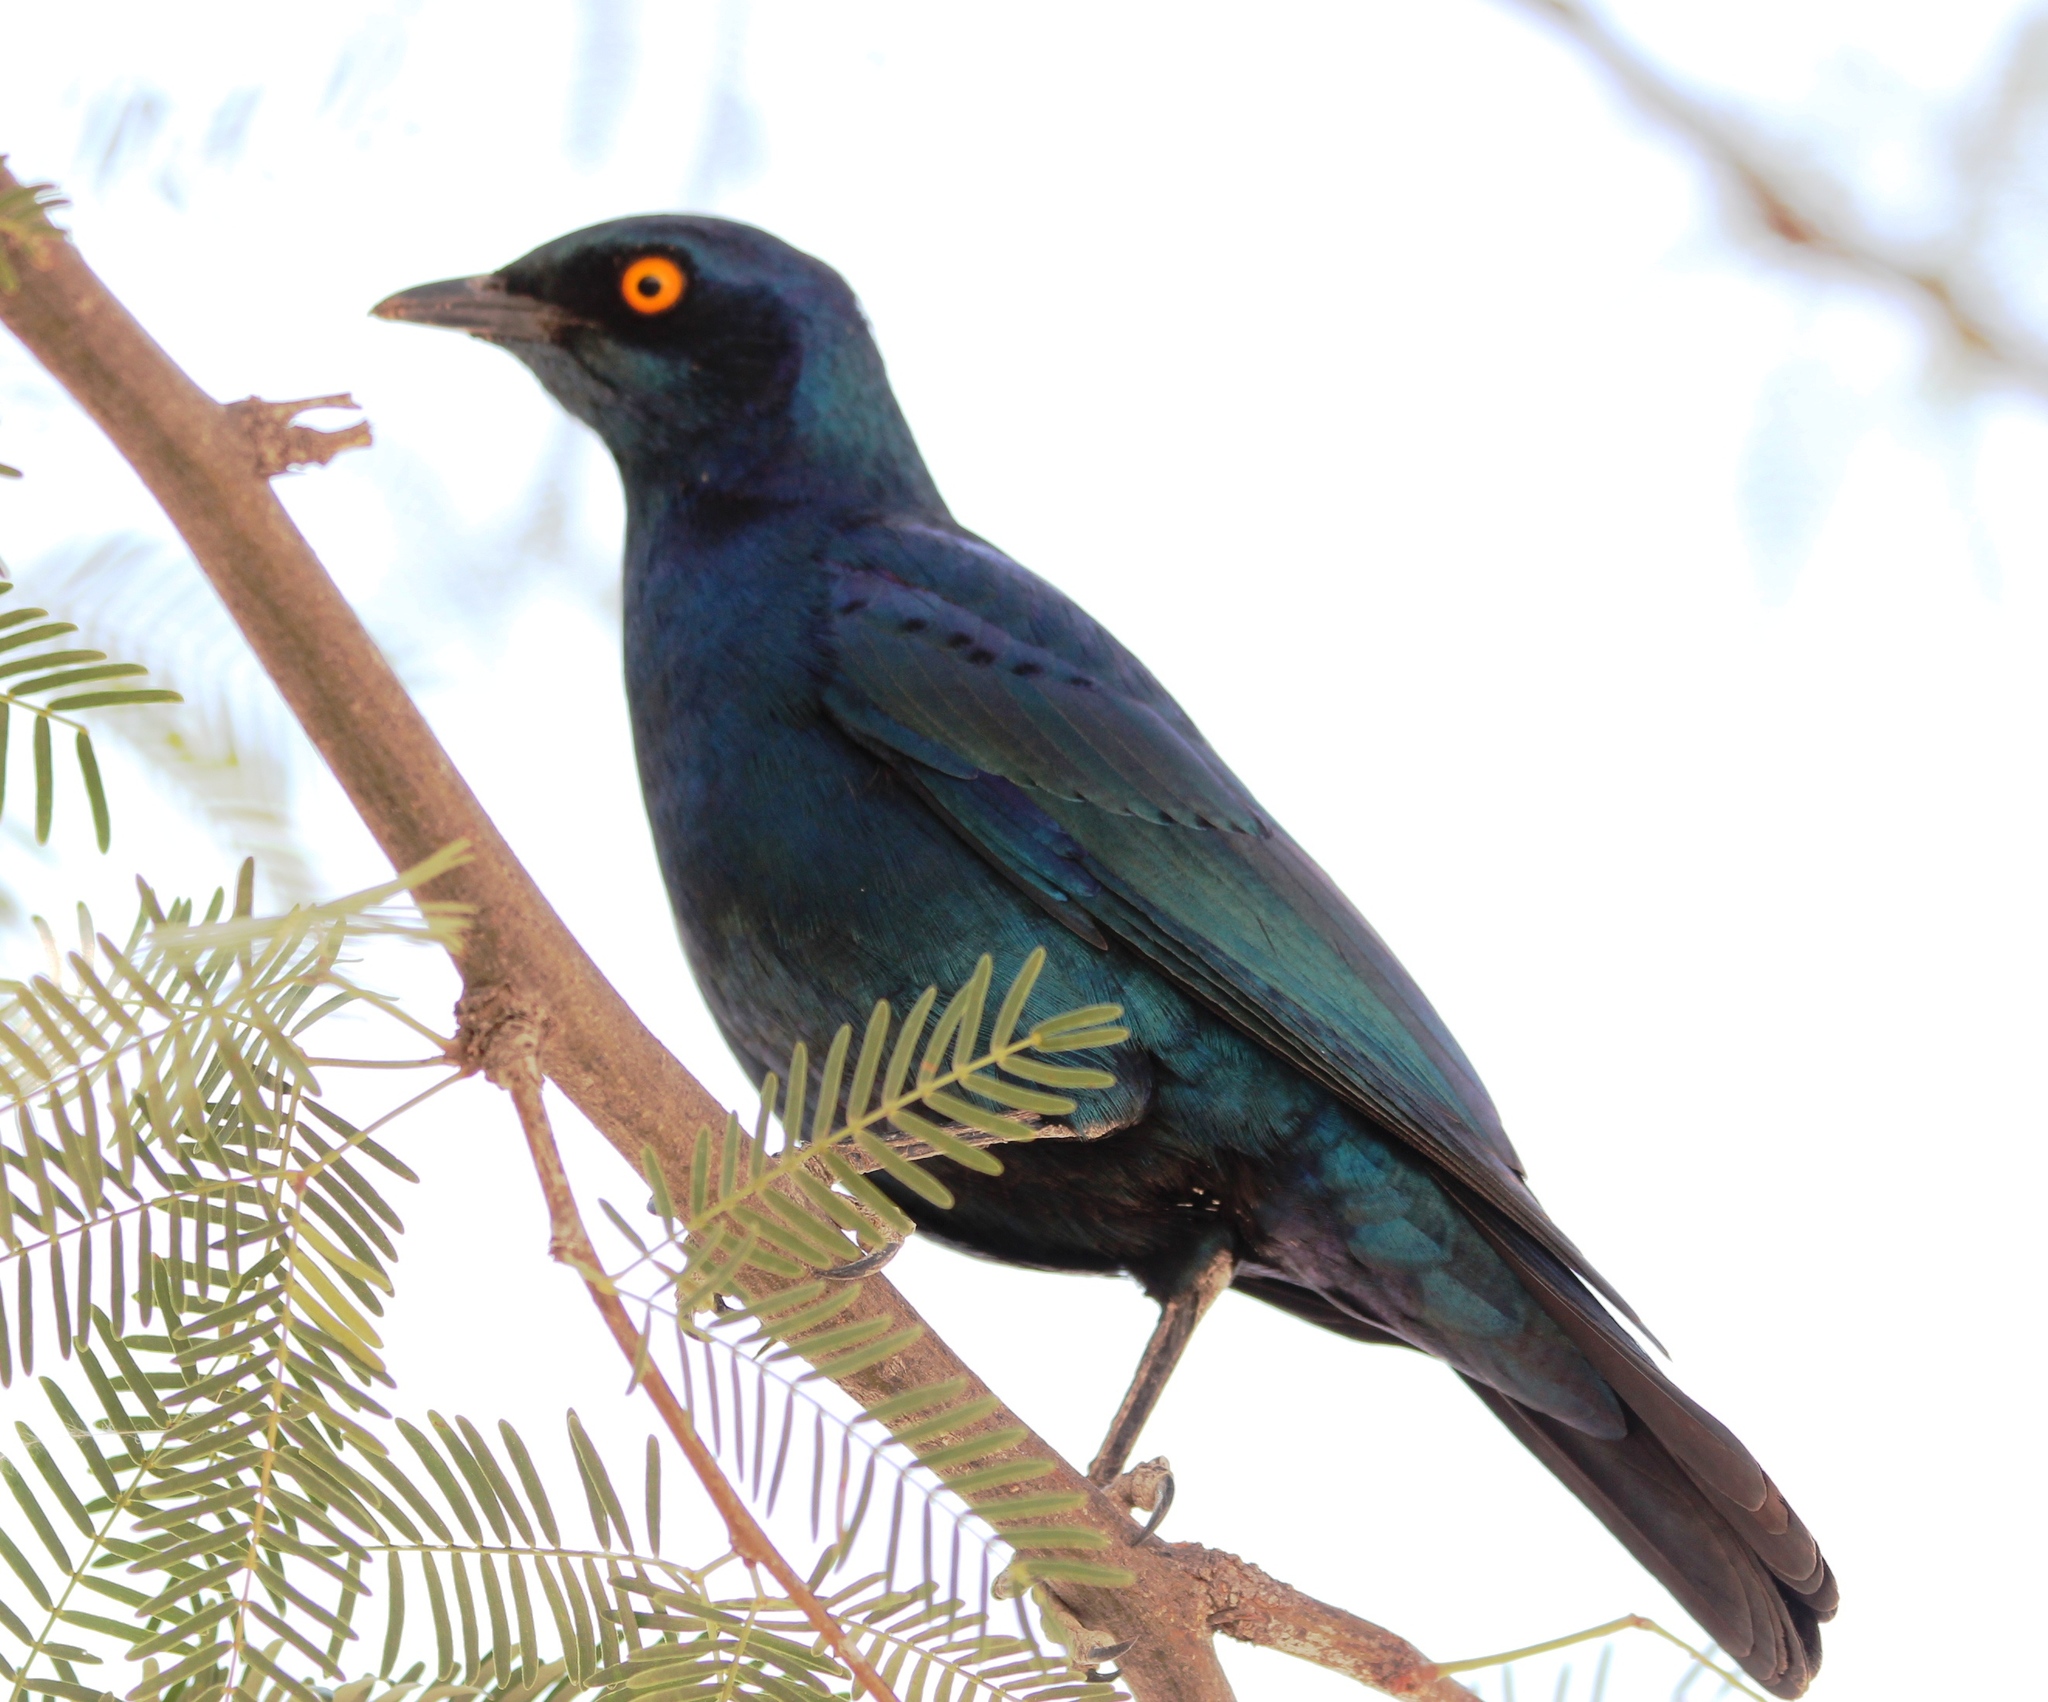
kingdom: Animalia
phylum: Chordata
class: Aves
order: Passeriformes
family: Sturnidae
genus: Lamprotornis
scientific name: Lamprotornis nitens
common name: Cape starling
